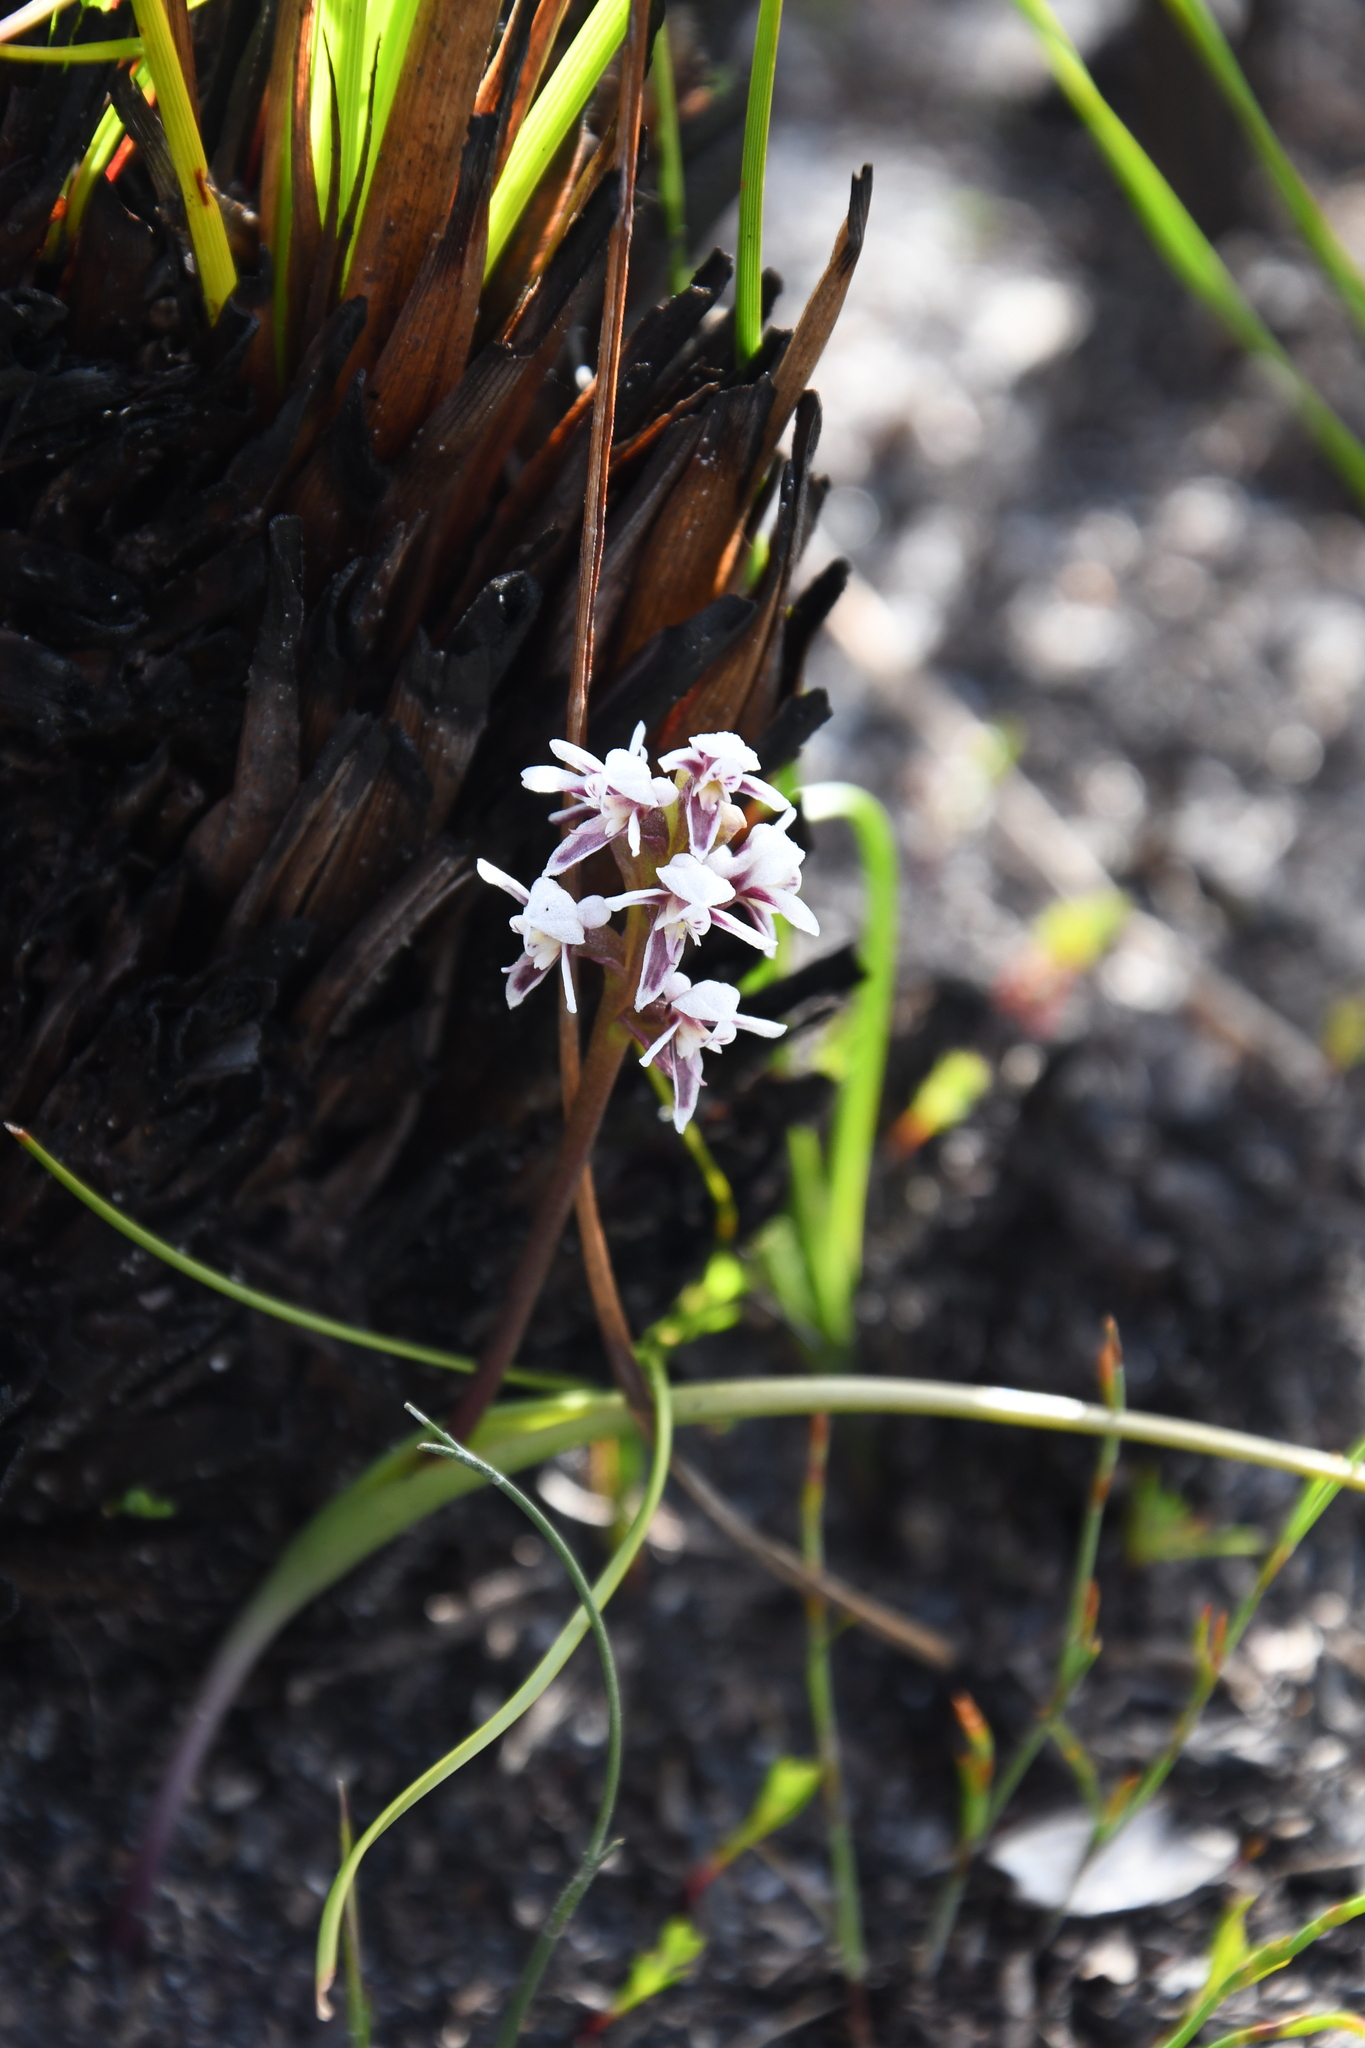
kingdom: Plantae
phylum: Tracheophyta
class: Liliopsida
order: Asparagales
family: Orchidaceae
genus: Prasophyllum
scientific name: Prasophyllum cucullatum
